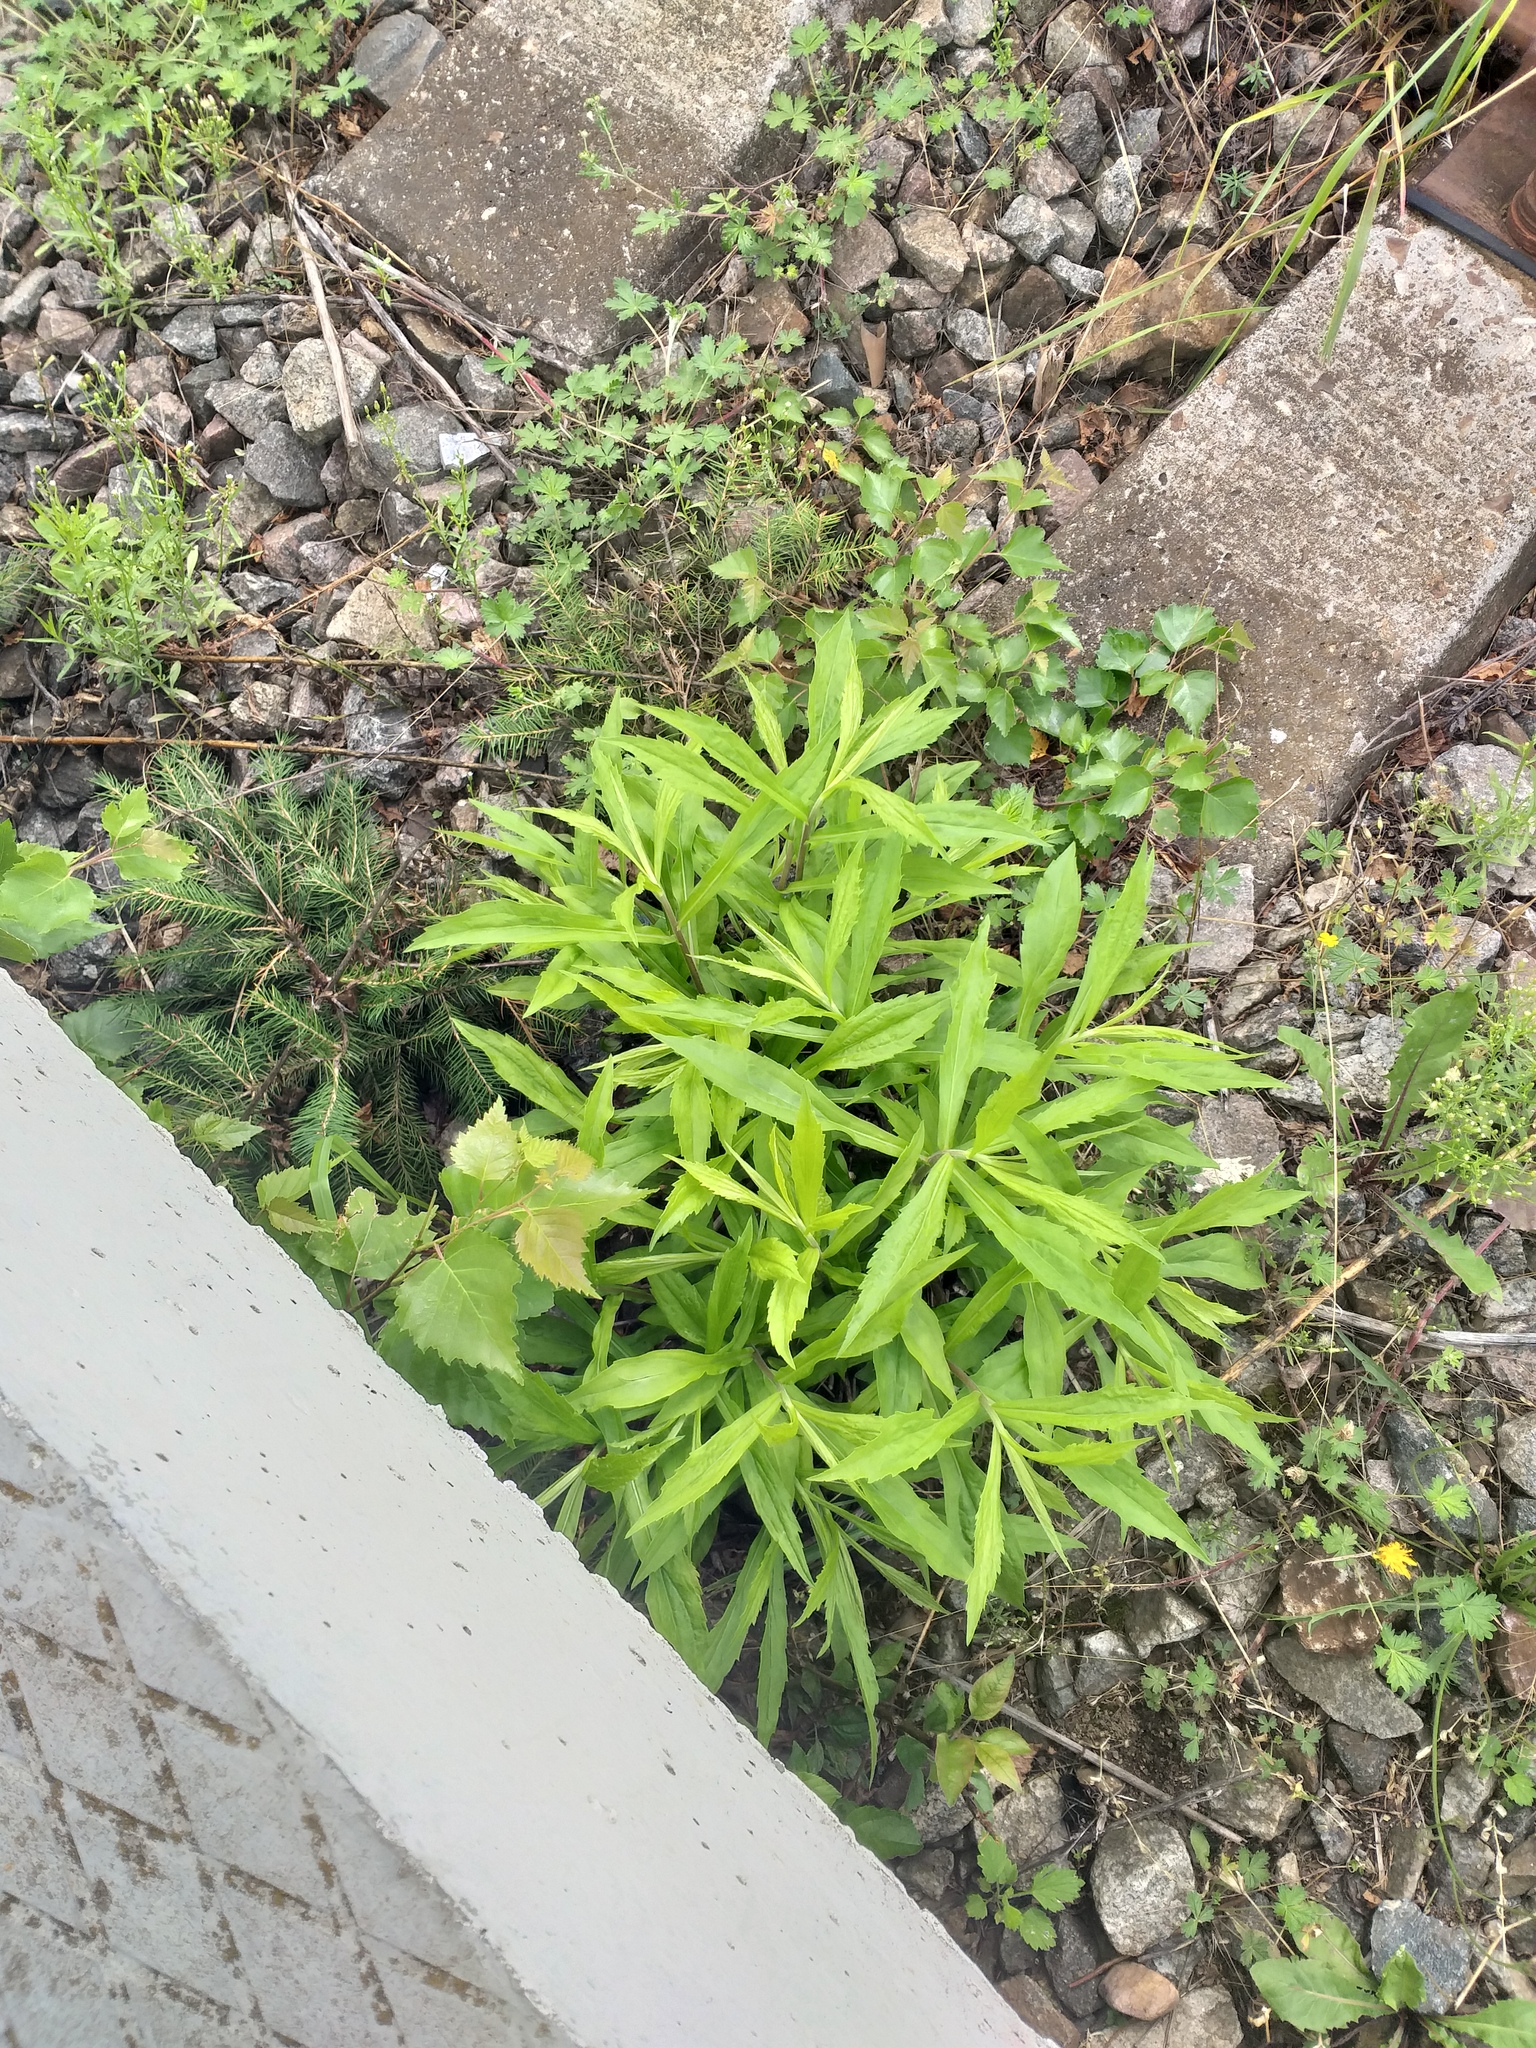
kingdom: Plantae
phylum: Tracheophyta
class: Magnoliopsida
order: Asterales
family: Asteraceae
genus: Solidago
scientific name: Solidago canadensis
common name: Canada goldenrod
